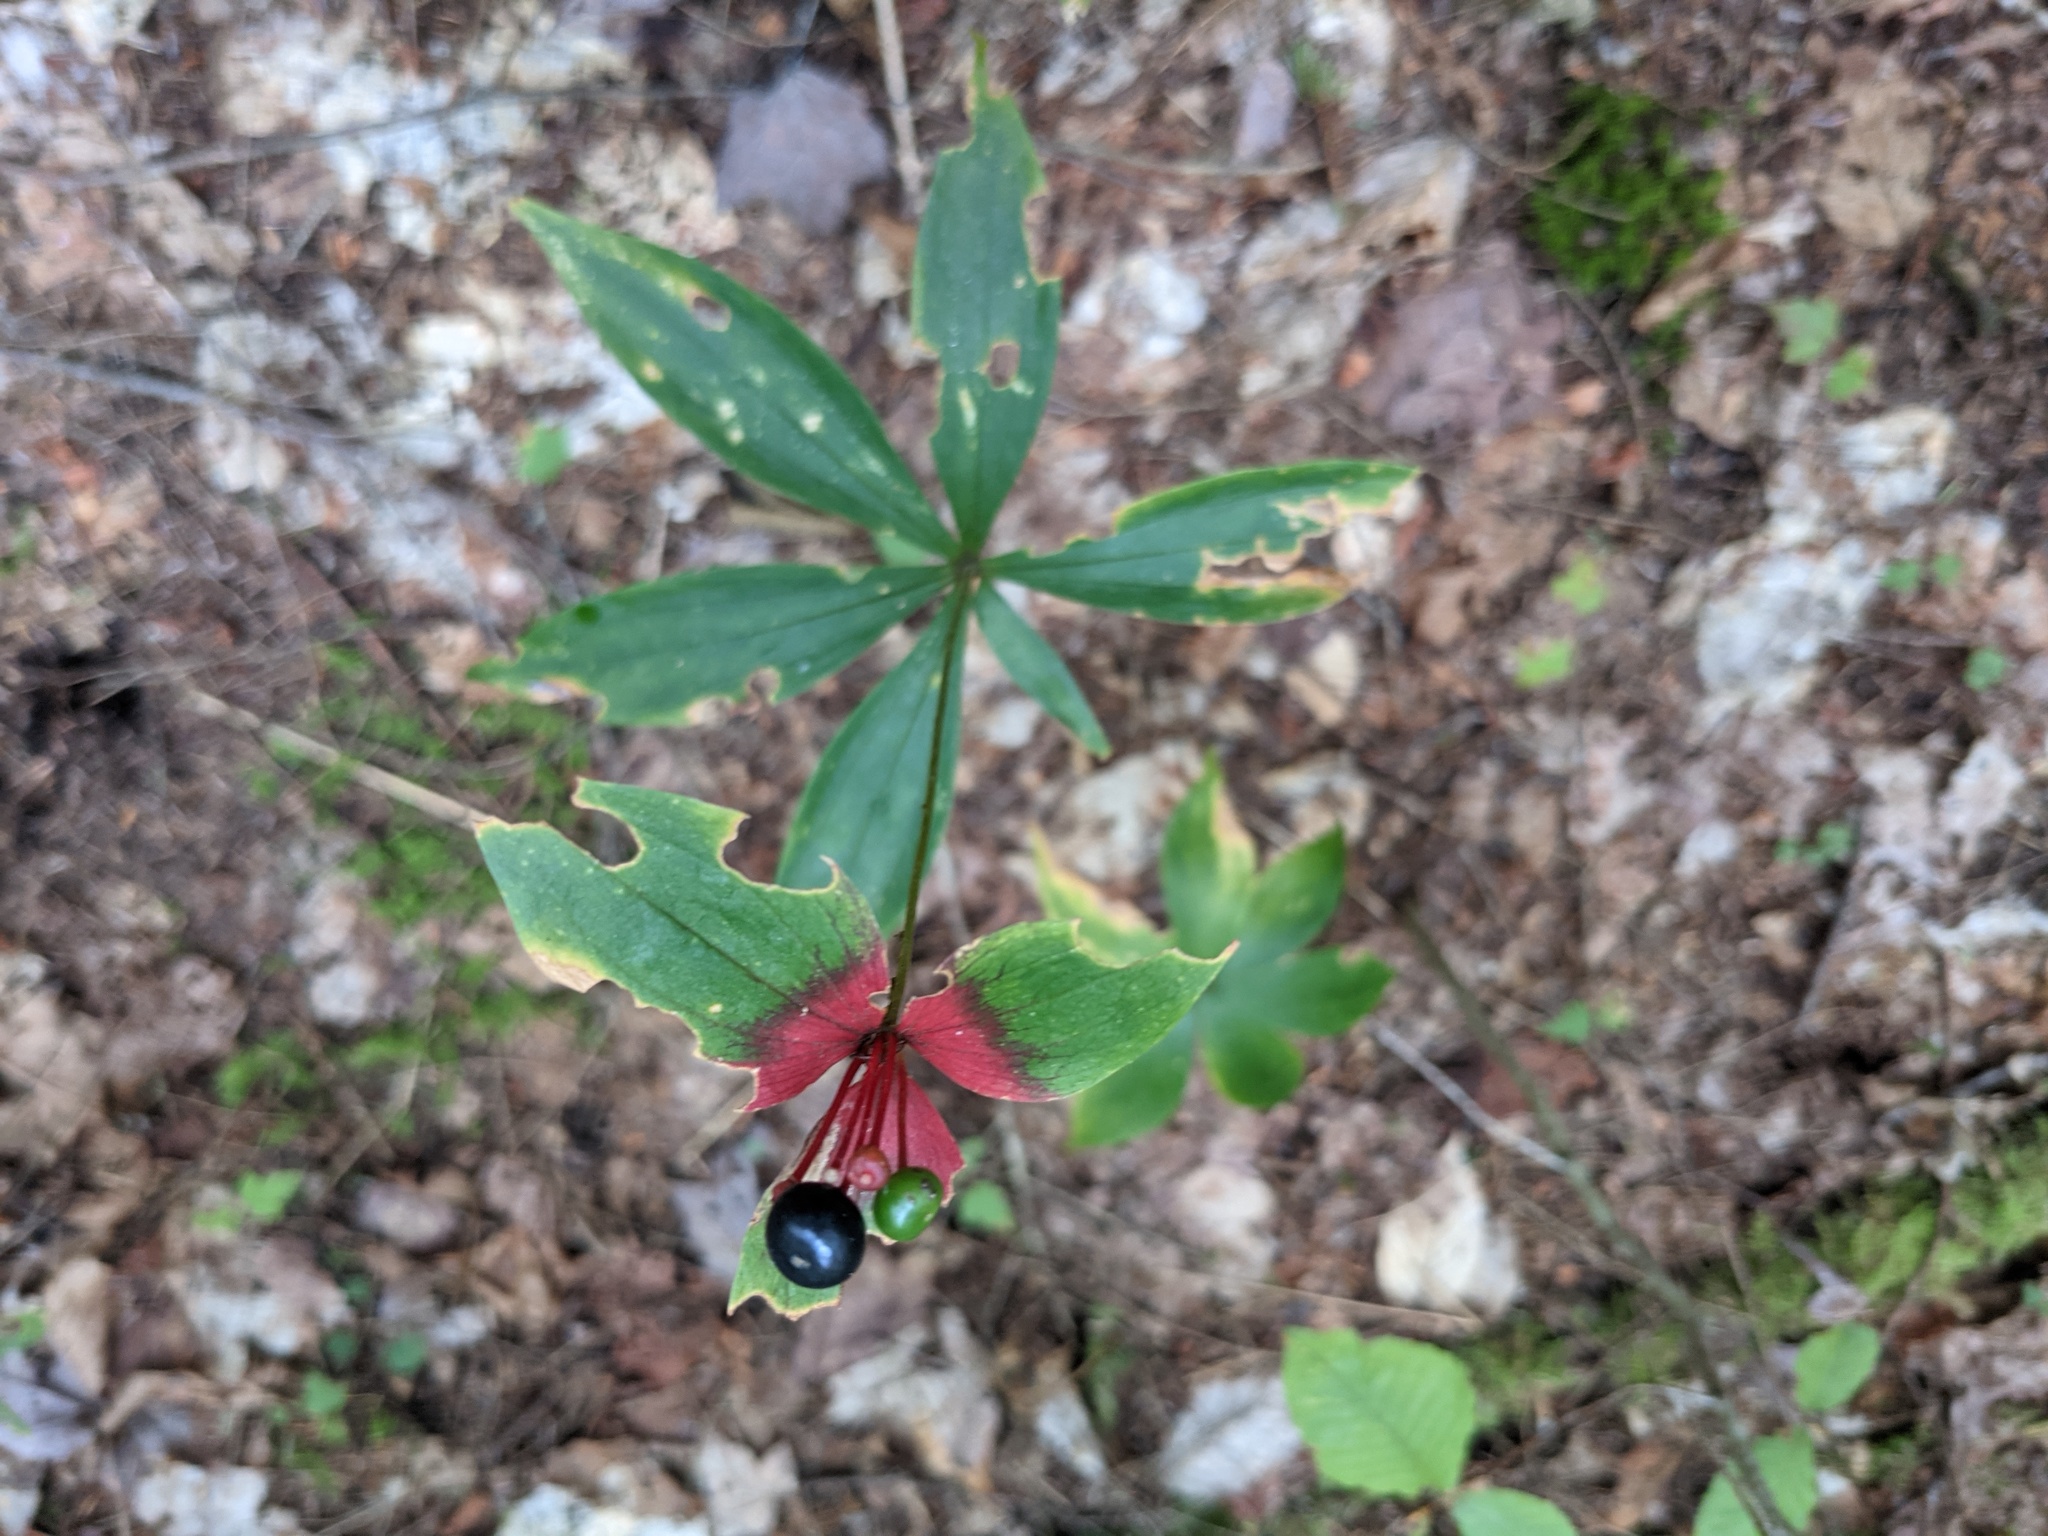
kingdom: Plantae
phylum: Tracheophyta
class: Liliopsida
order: Liliales
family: Liliaceae
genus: Medeola
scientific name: Medeola virginiana
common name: Indian cucumber-root
